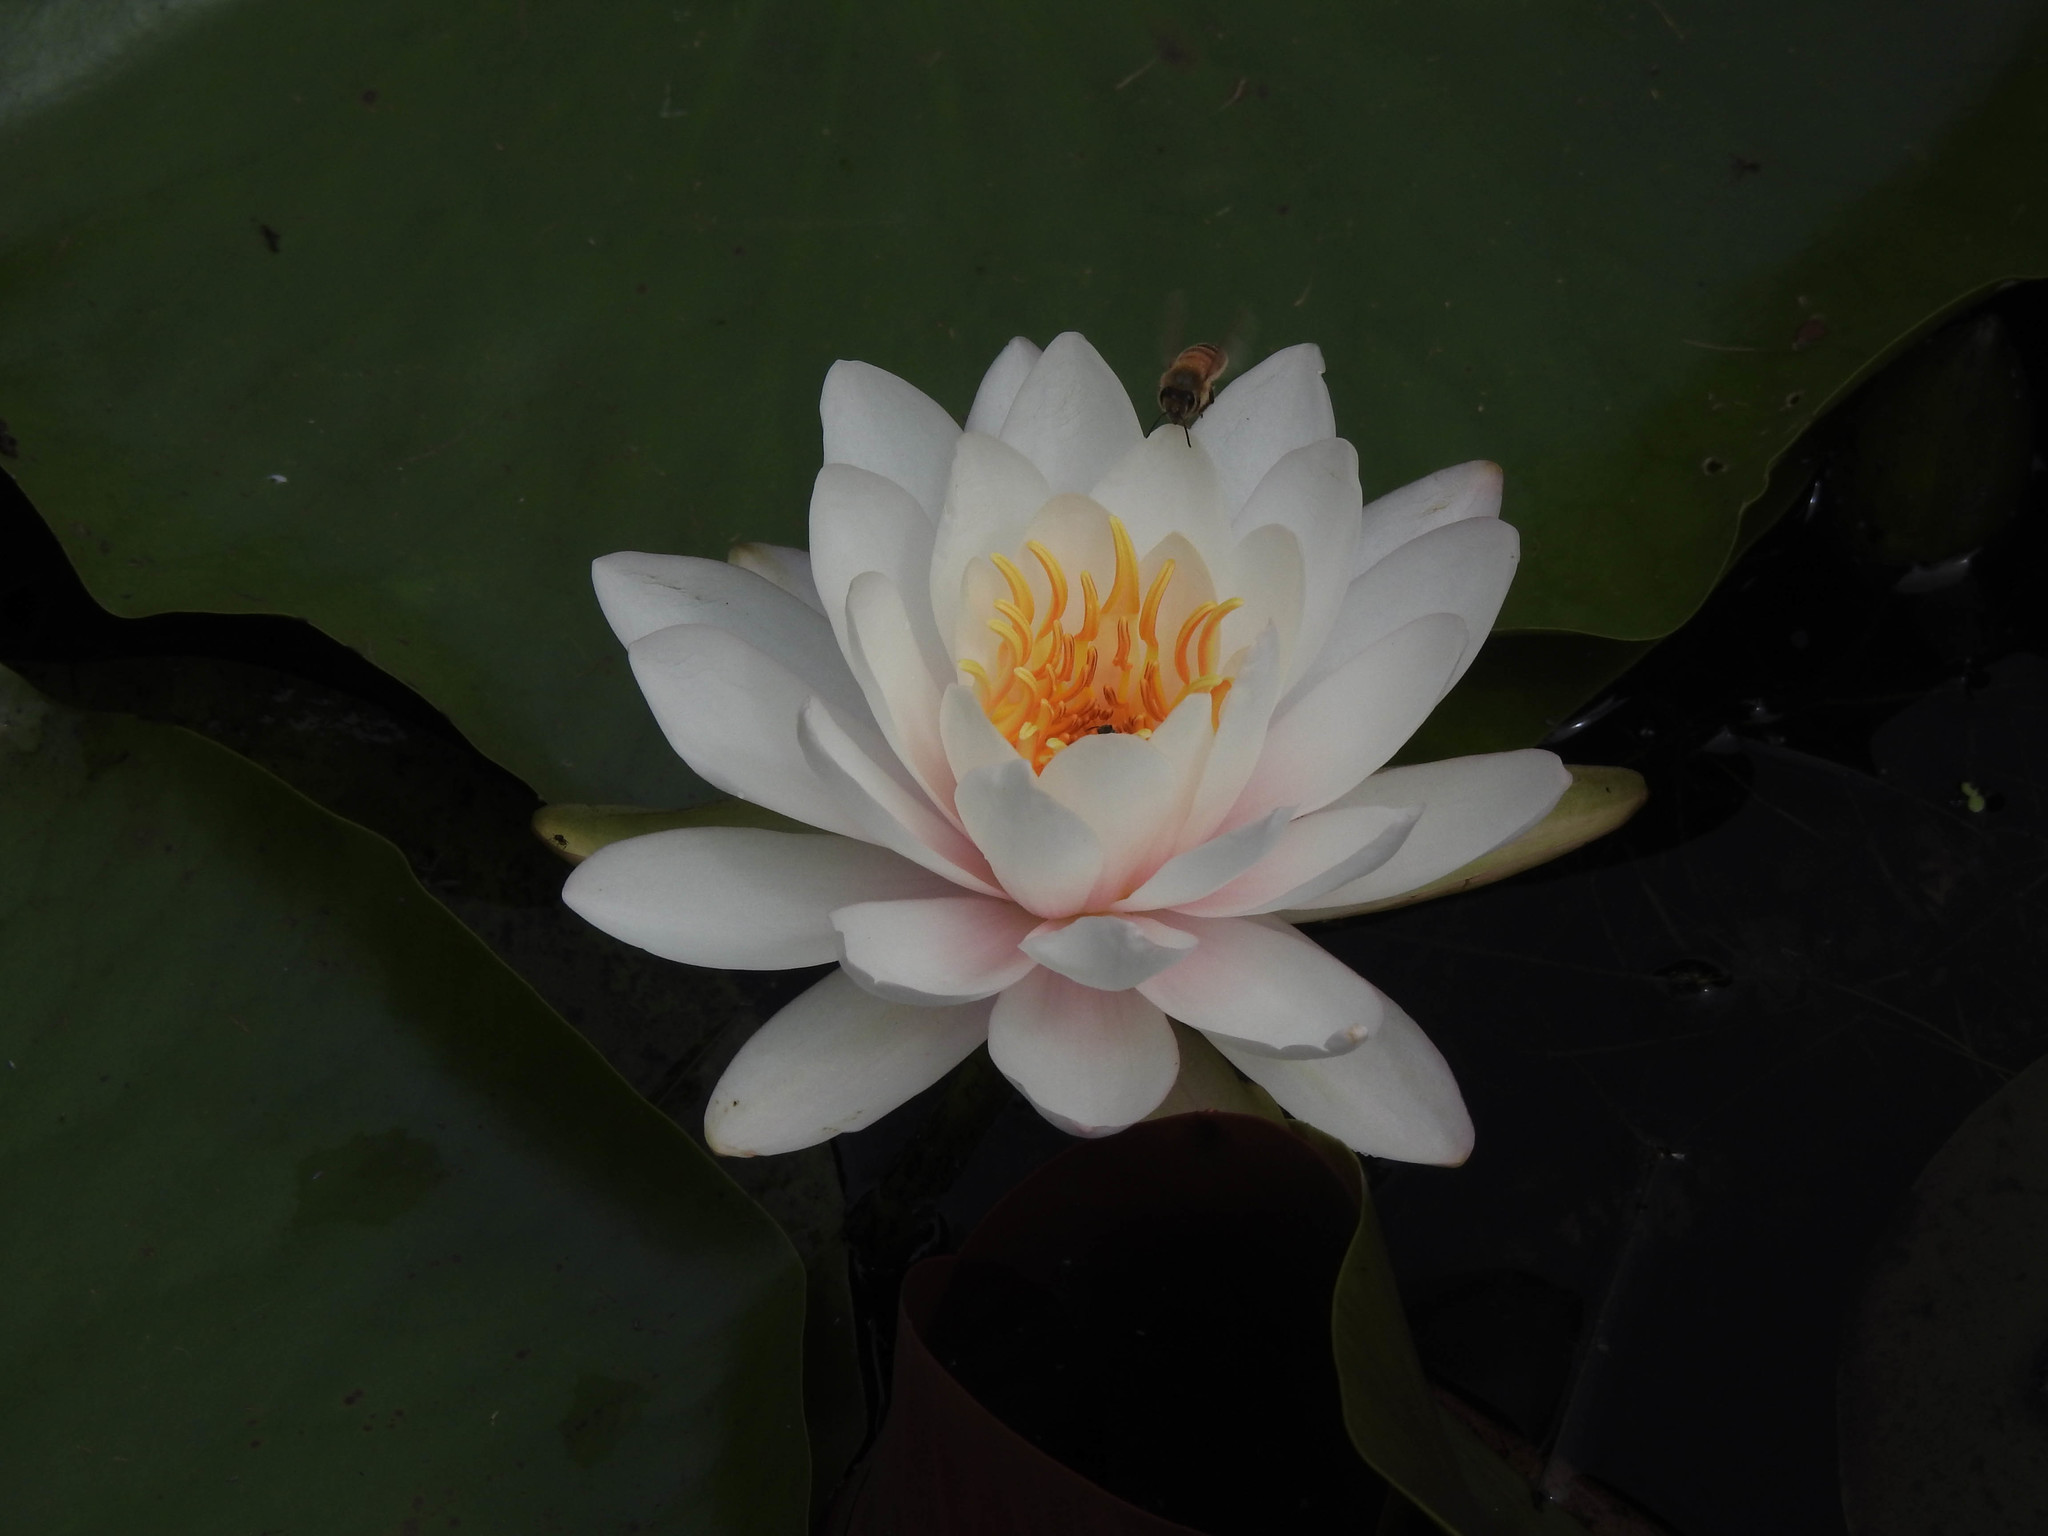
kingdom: Plantae
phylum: Tracheophyta
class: Magnoliopsida
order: Nymphaeales
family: Nymphaeaceae
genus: Nymphaea
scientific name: Nymphaea odorata
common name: Fragrant water-lily
